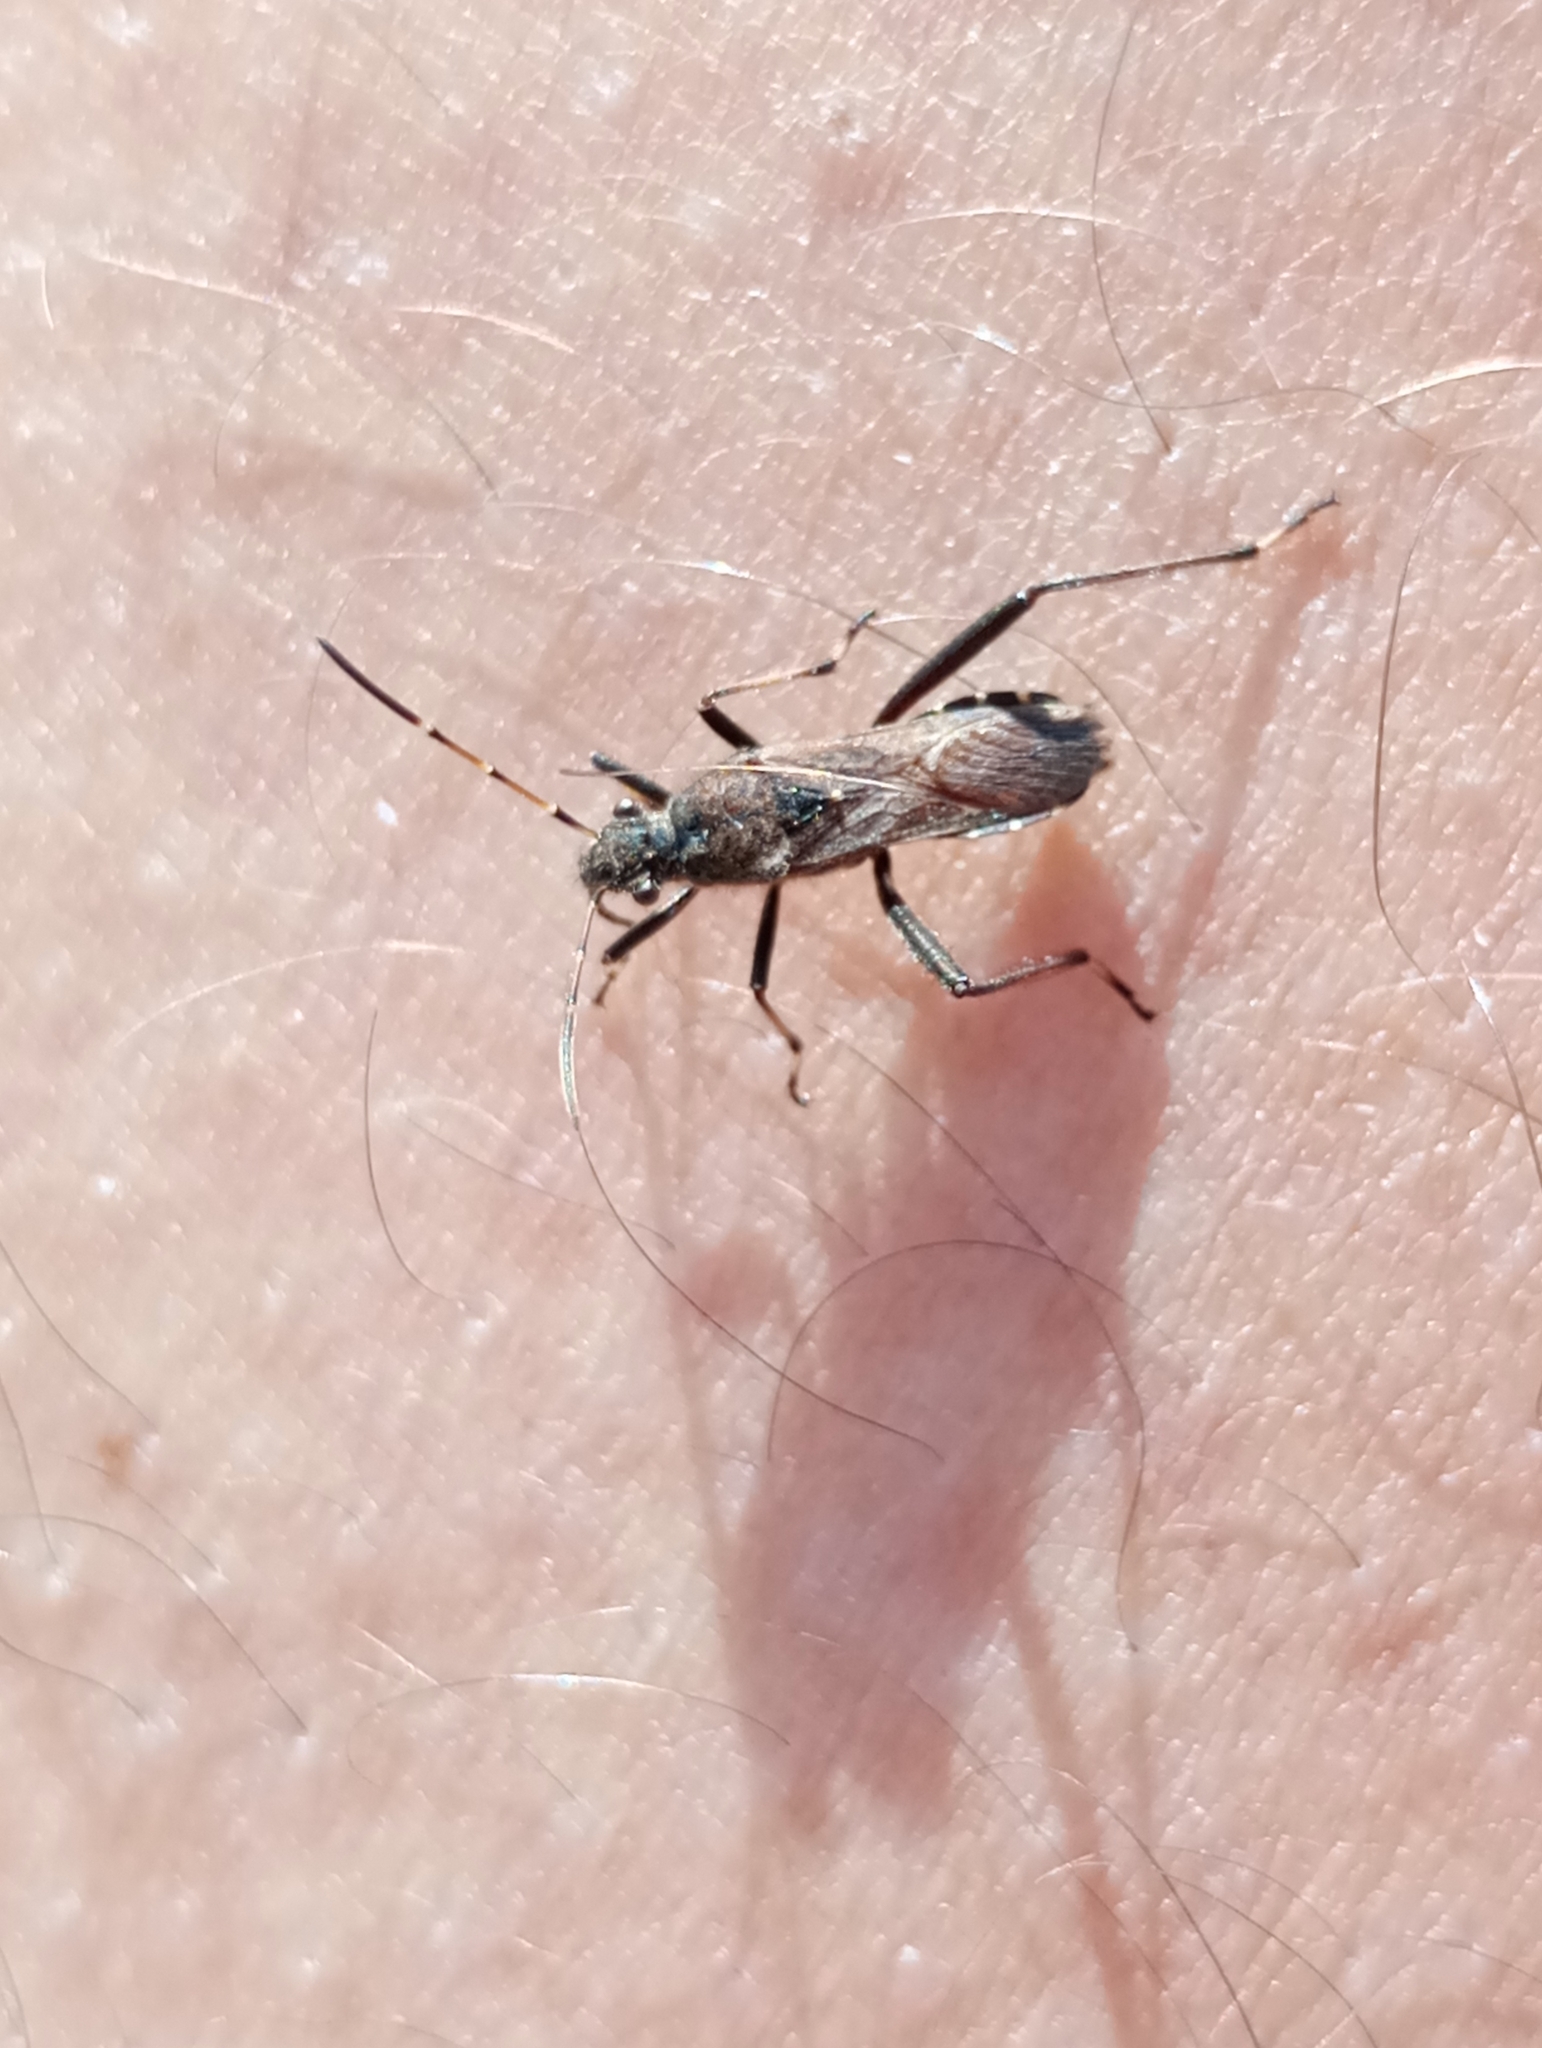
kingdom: Animalia
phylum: Arthropoda
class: Insecta
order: Hemiptera
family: Alydidae
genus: Alydus
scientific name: Alydus calcaratus
